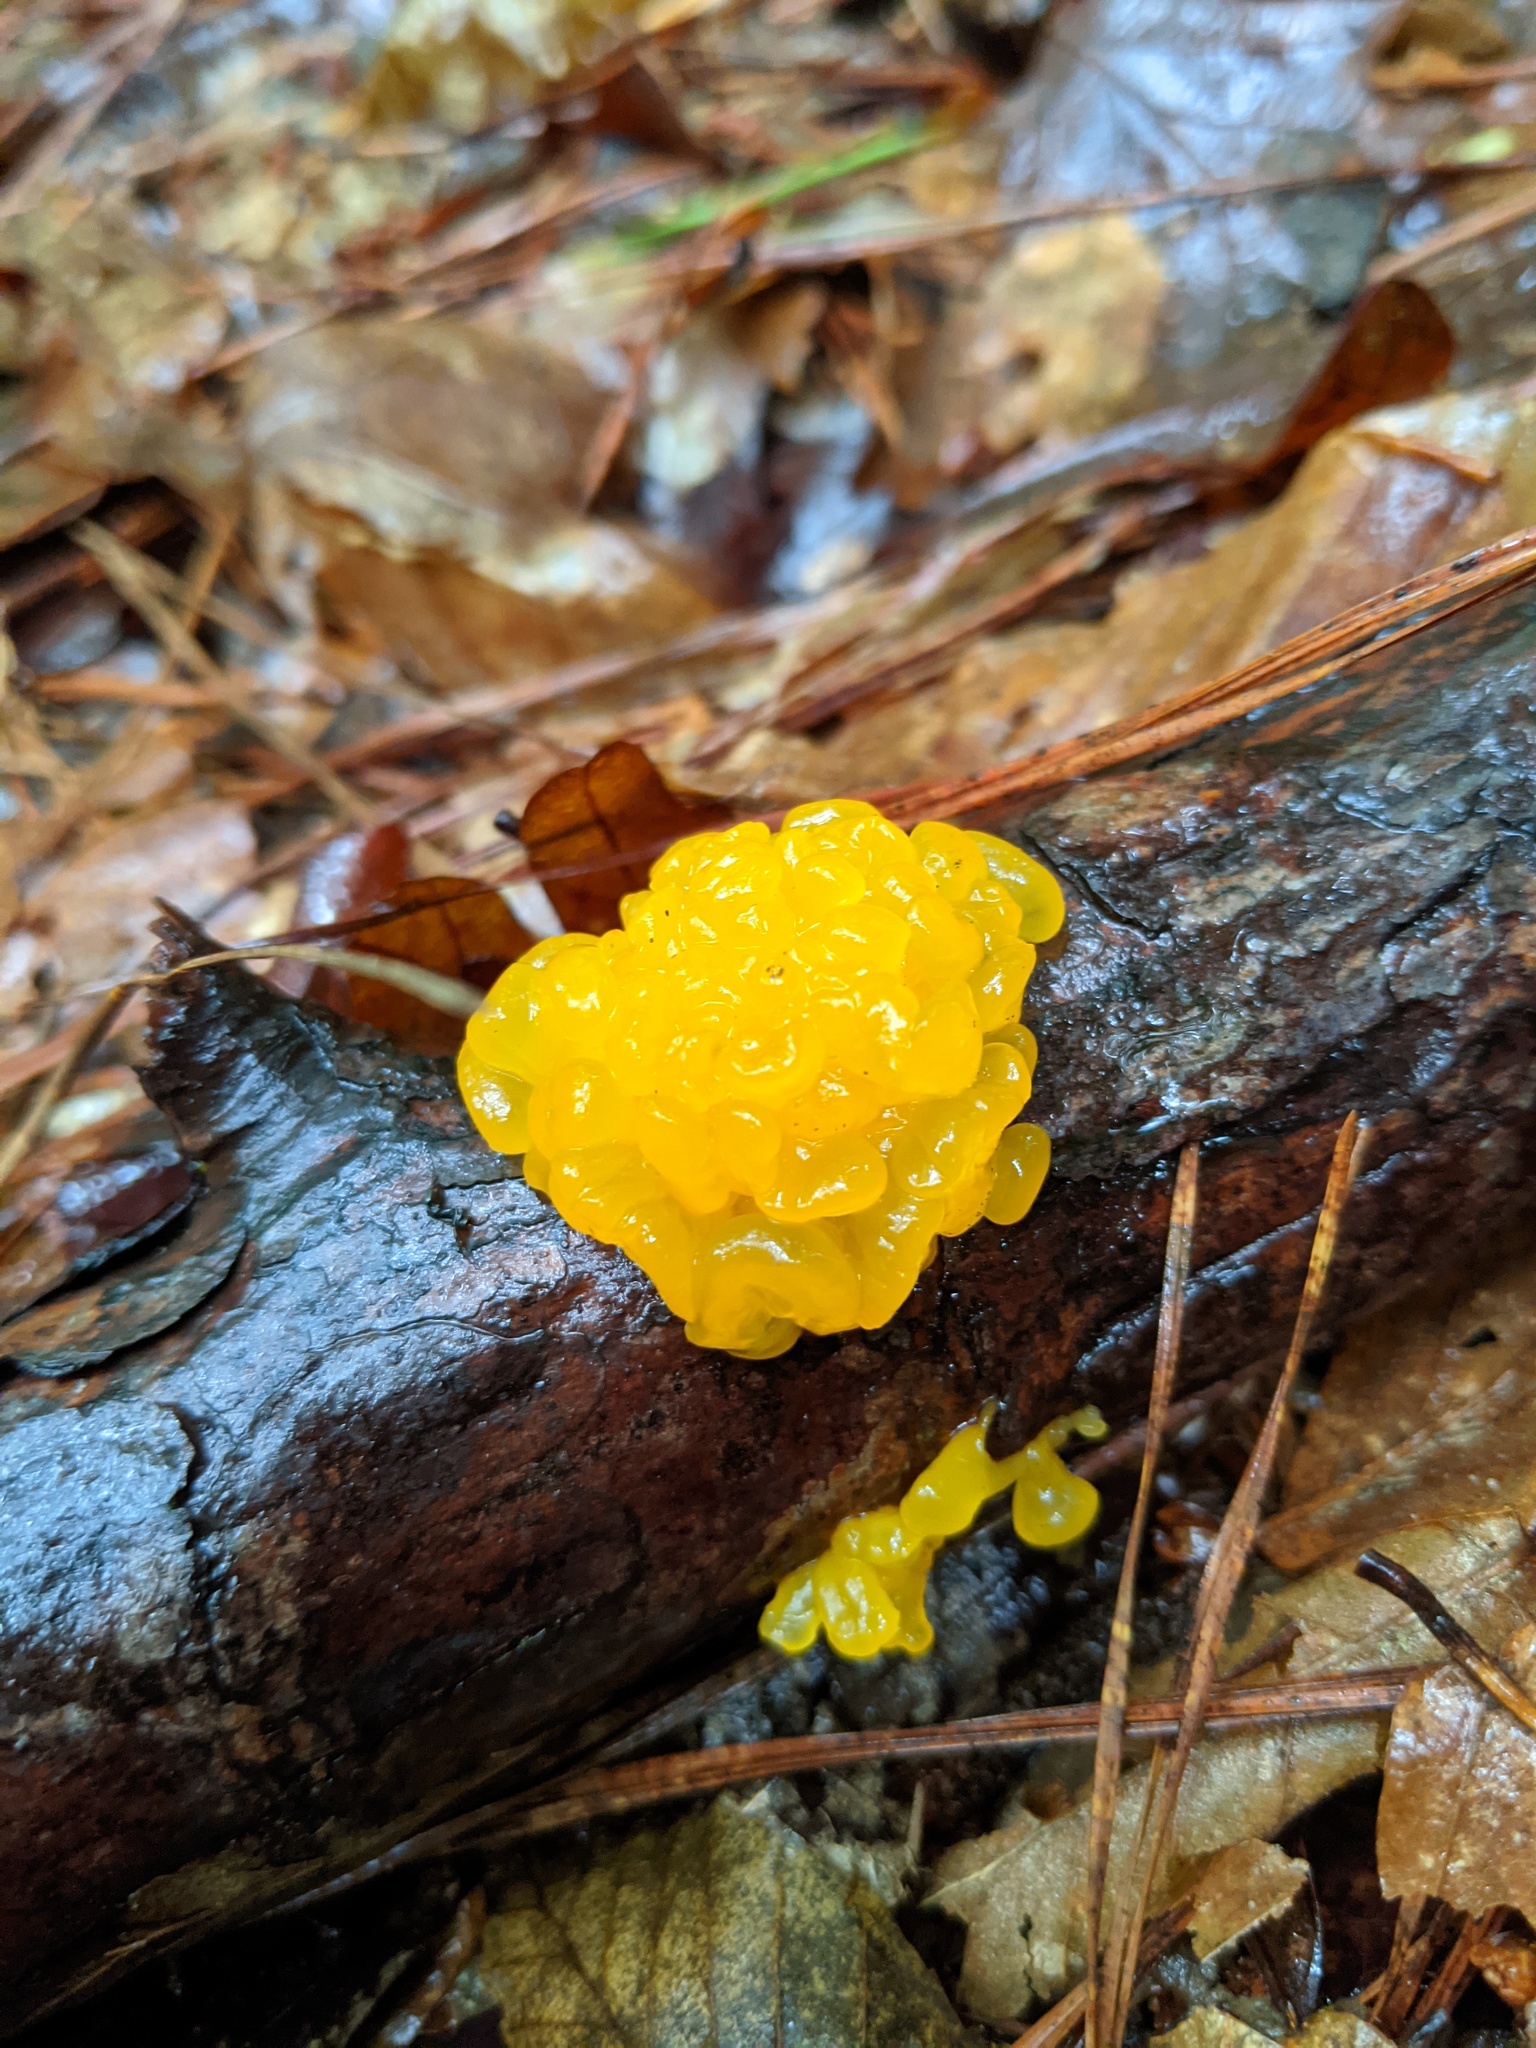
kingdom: Fungi
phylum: Basidiomycota
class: Tremellomycetes
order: Tremellales
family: Tremellaceae
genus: Tremella
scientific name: Tremella mesenterica
